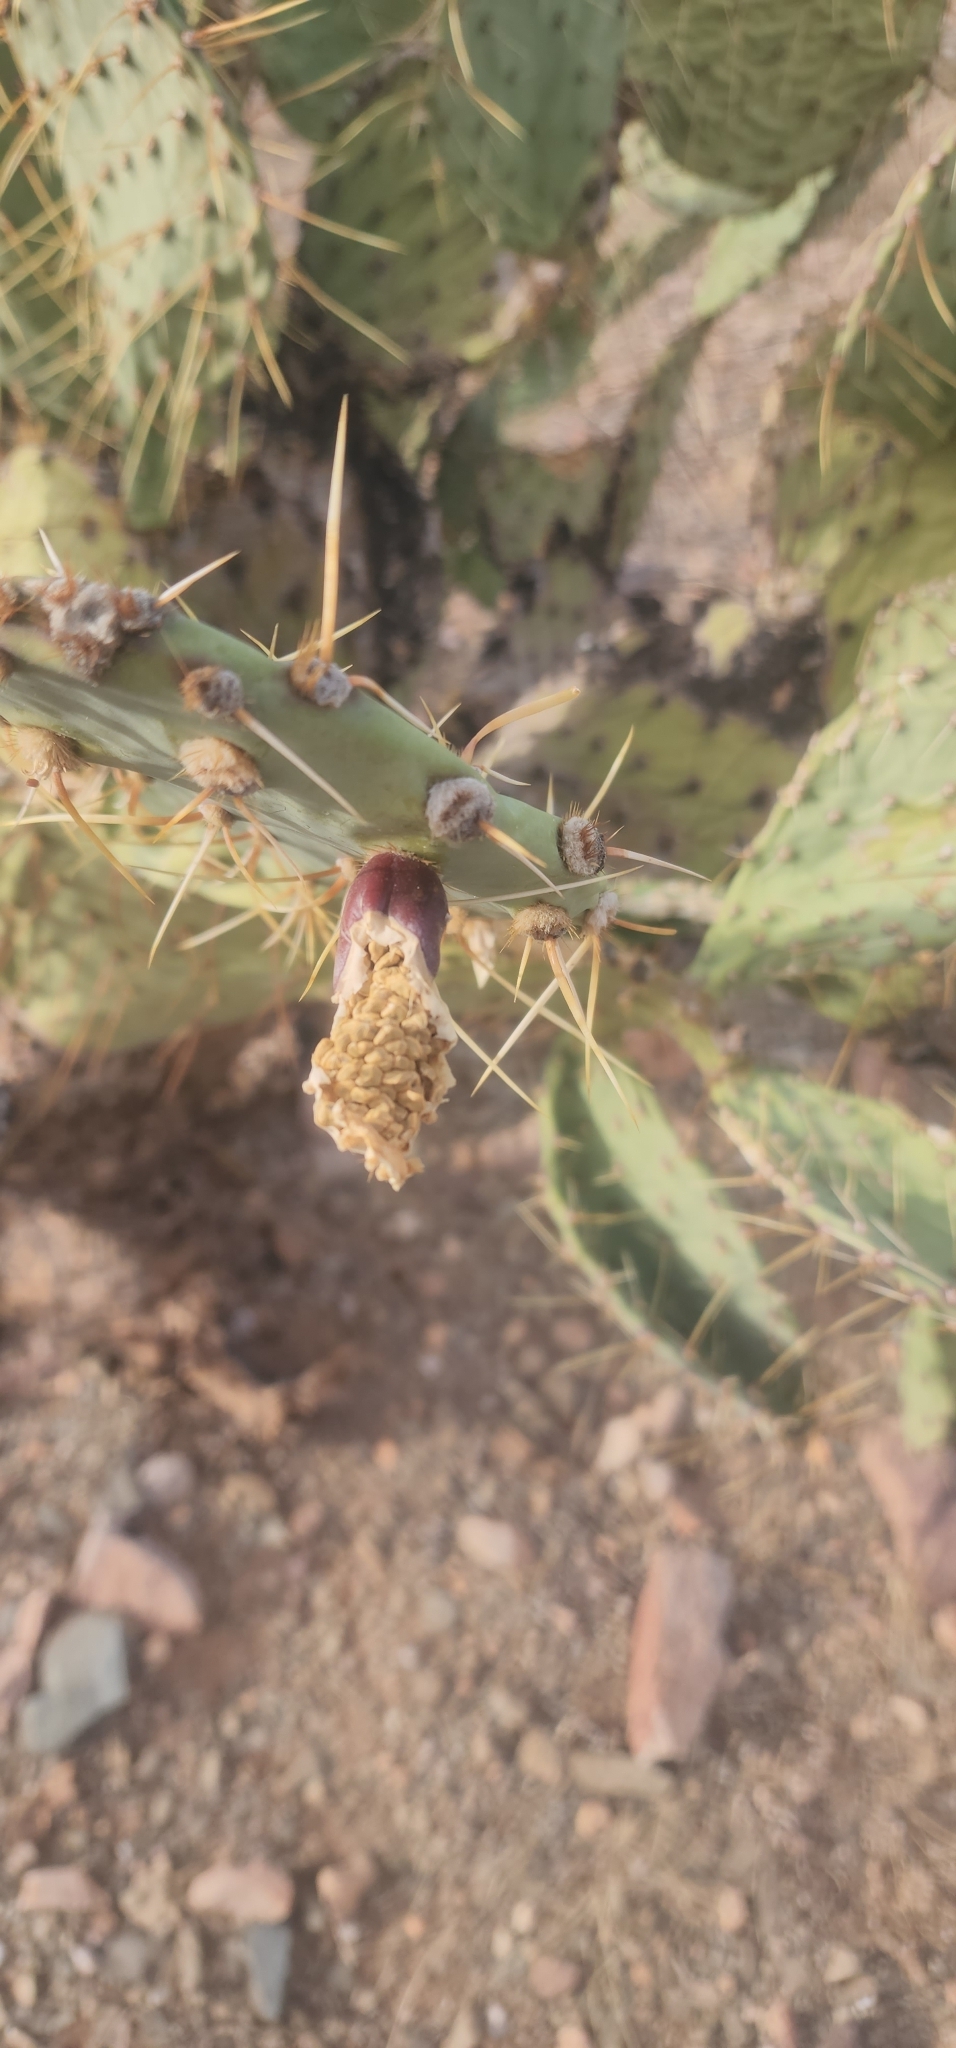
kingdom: Plantae
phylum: Tracheophyta
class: Magnoliopsida
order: Caryophyllales
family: Cactaceae
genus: Opuntia
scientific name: Opuntia engelmannii
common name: Cactus-apple
